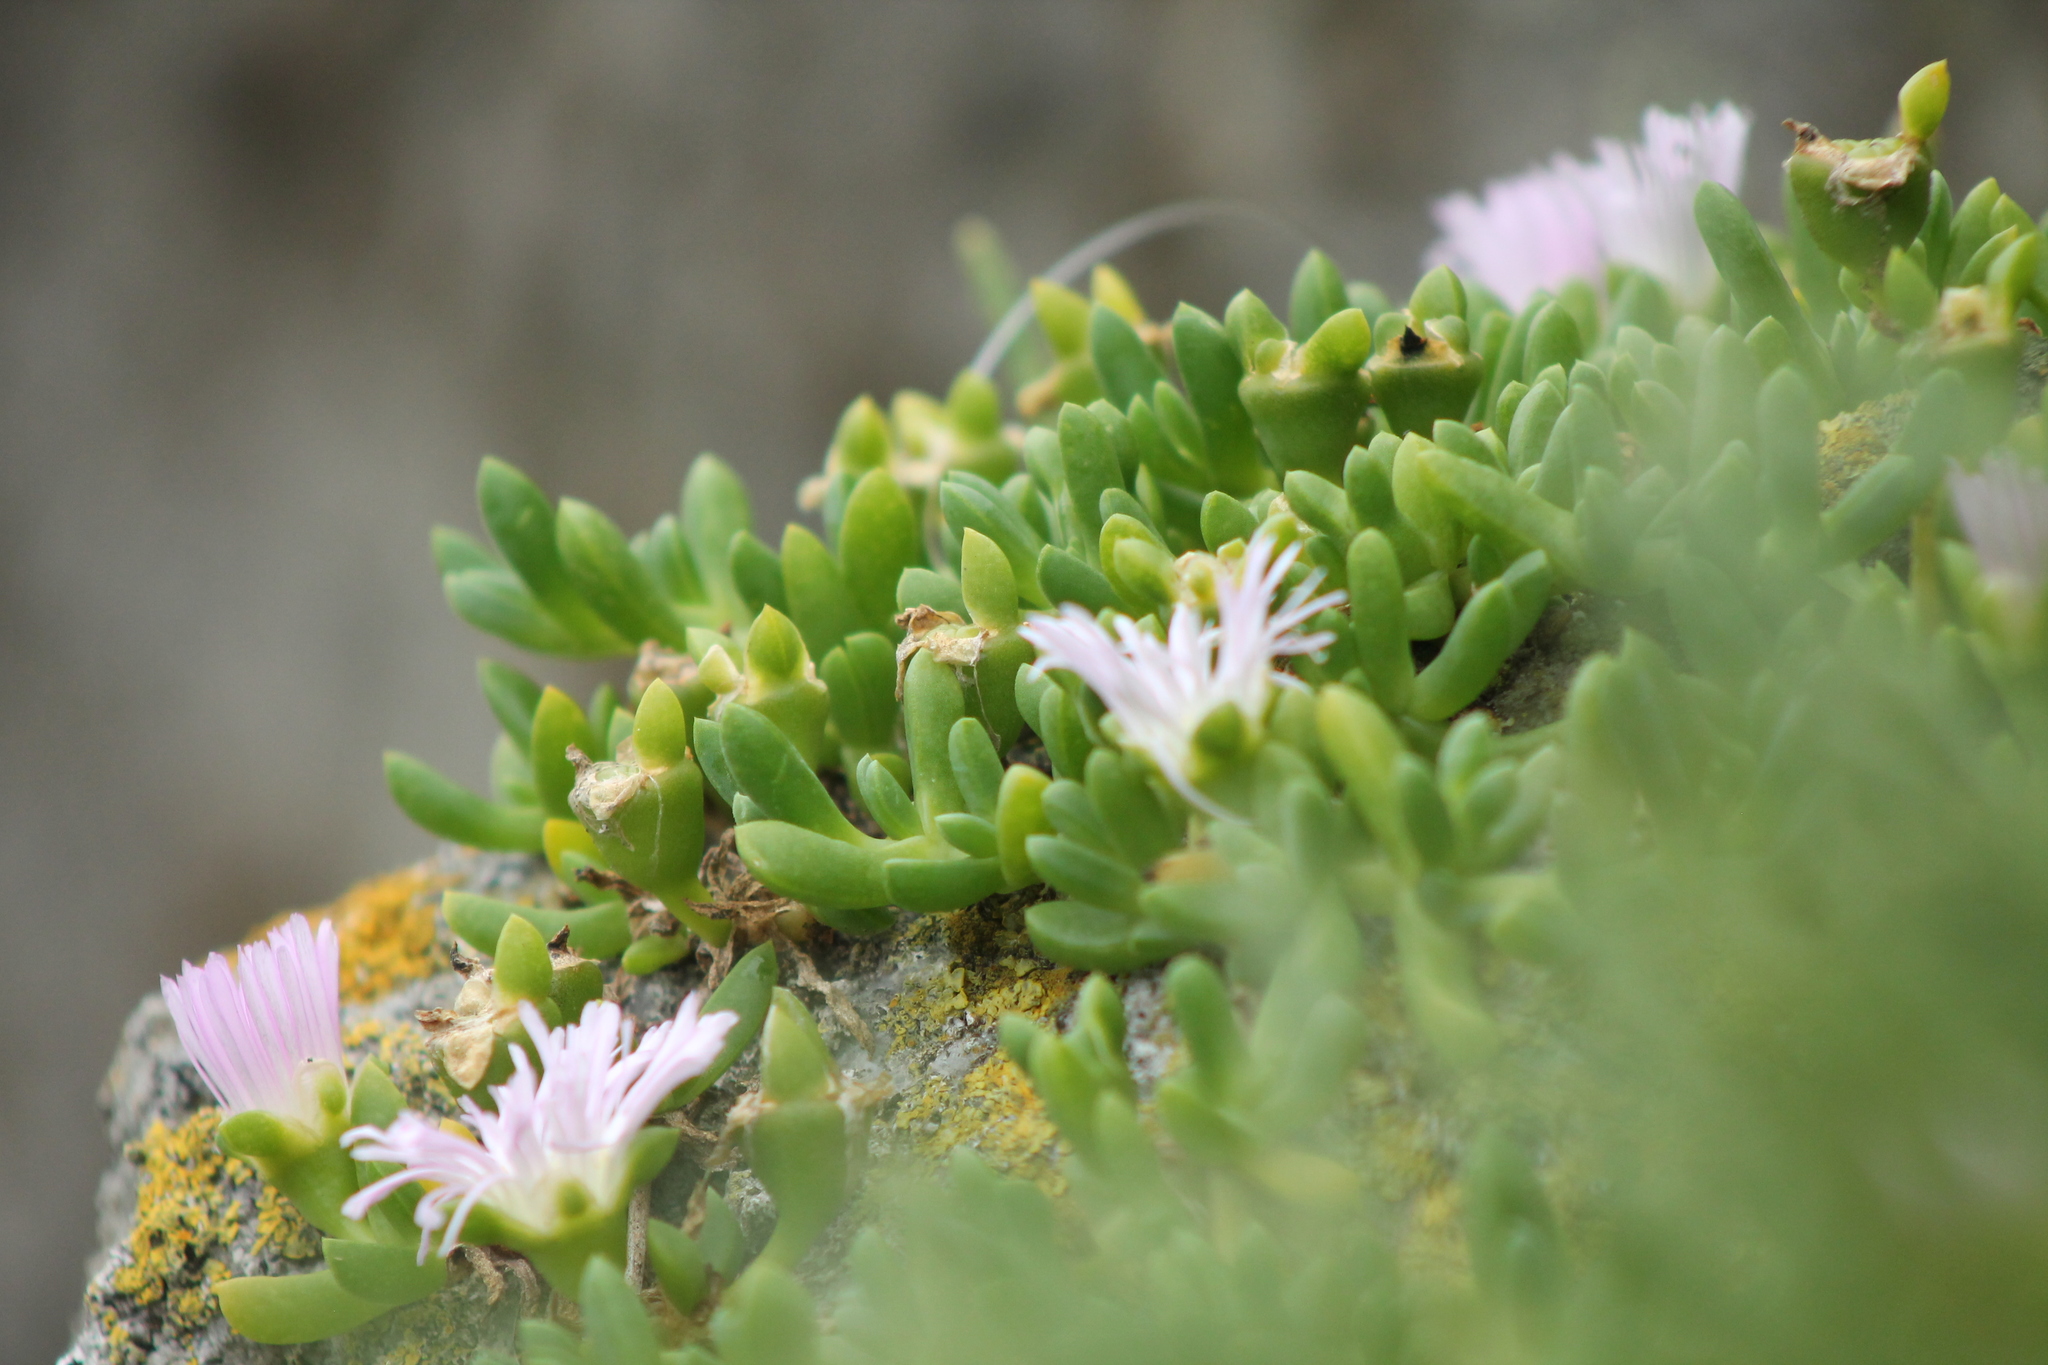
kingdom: Plantae
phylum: Tracheophyta
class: Magnoliopsida
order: Caryophyllales
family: Aizoaceae
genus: Disphyma
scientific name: Disphyma australe
